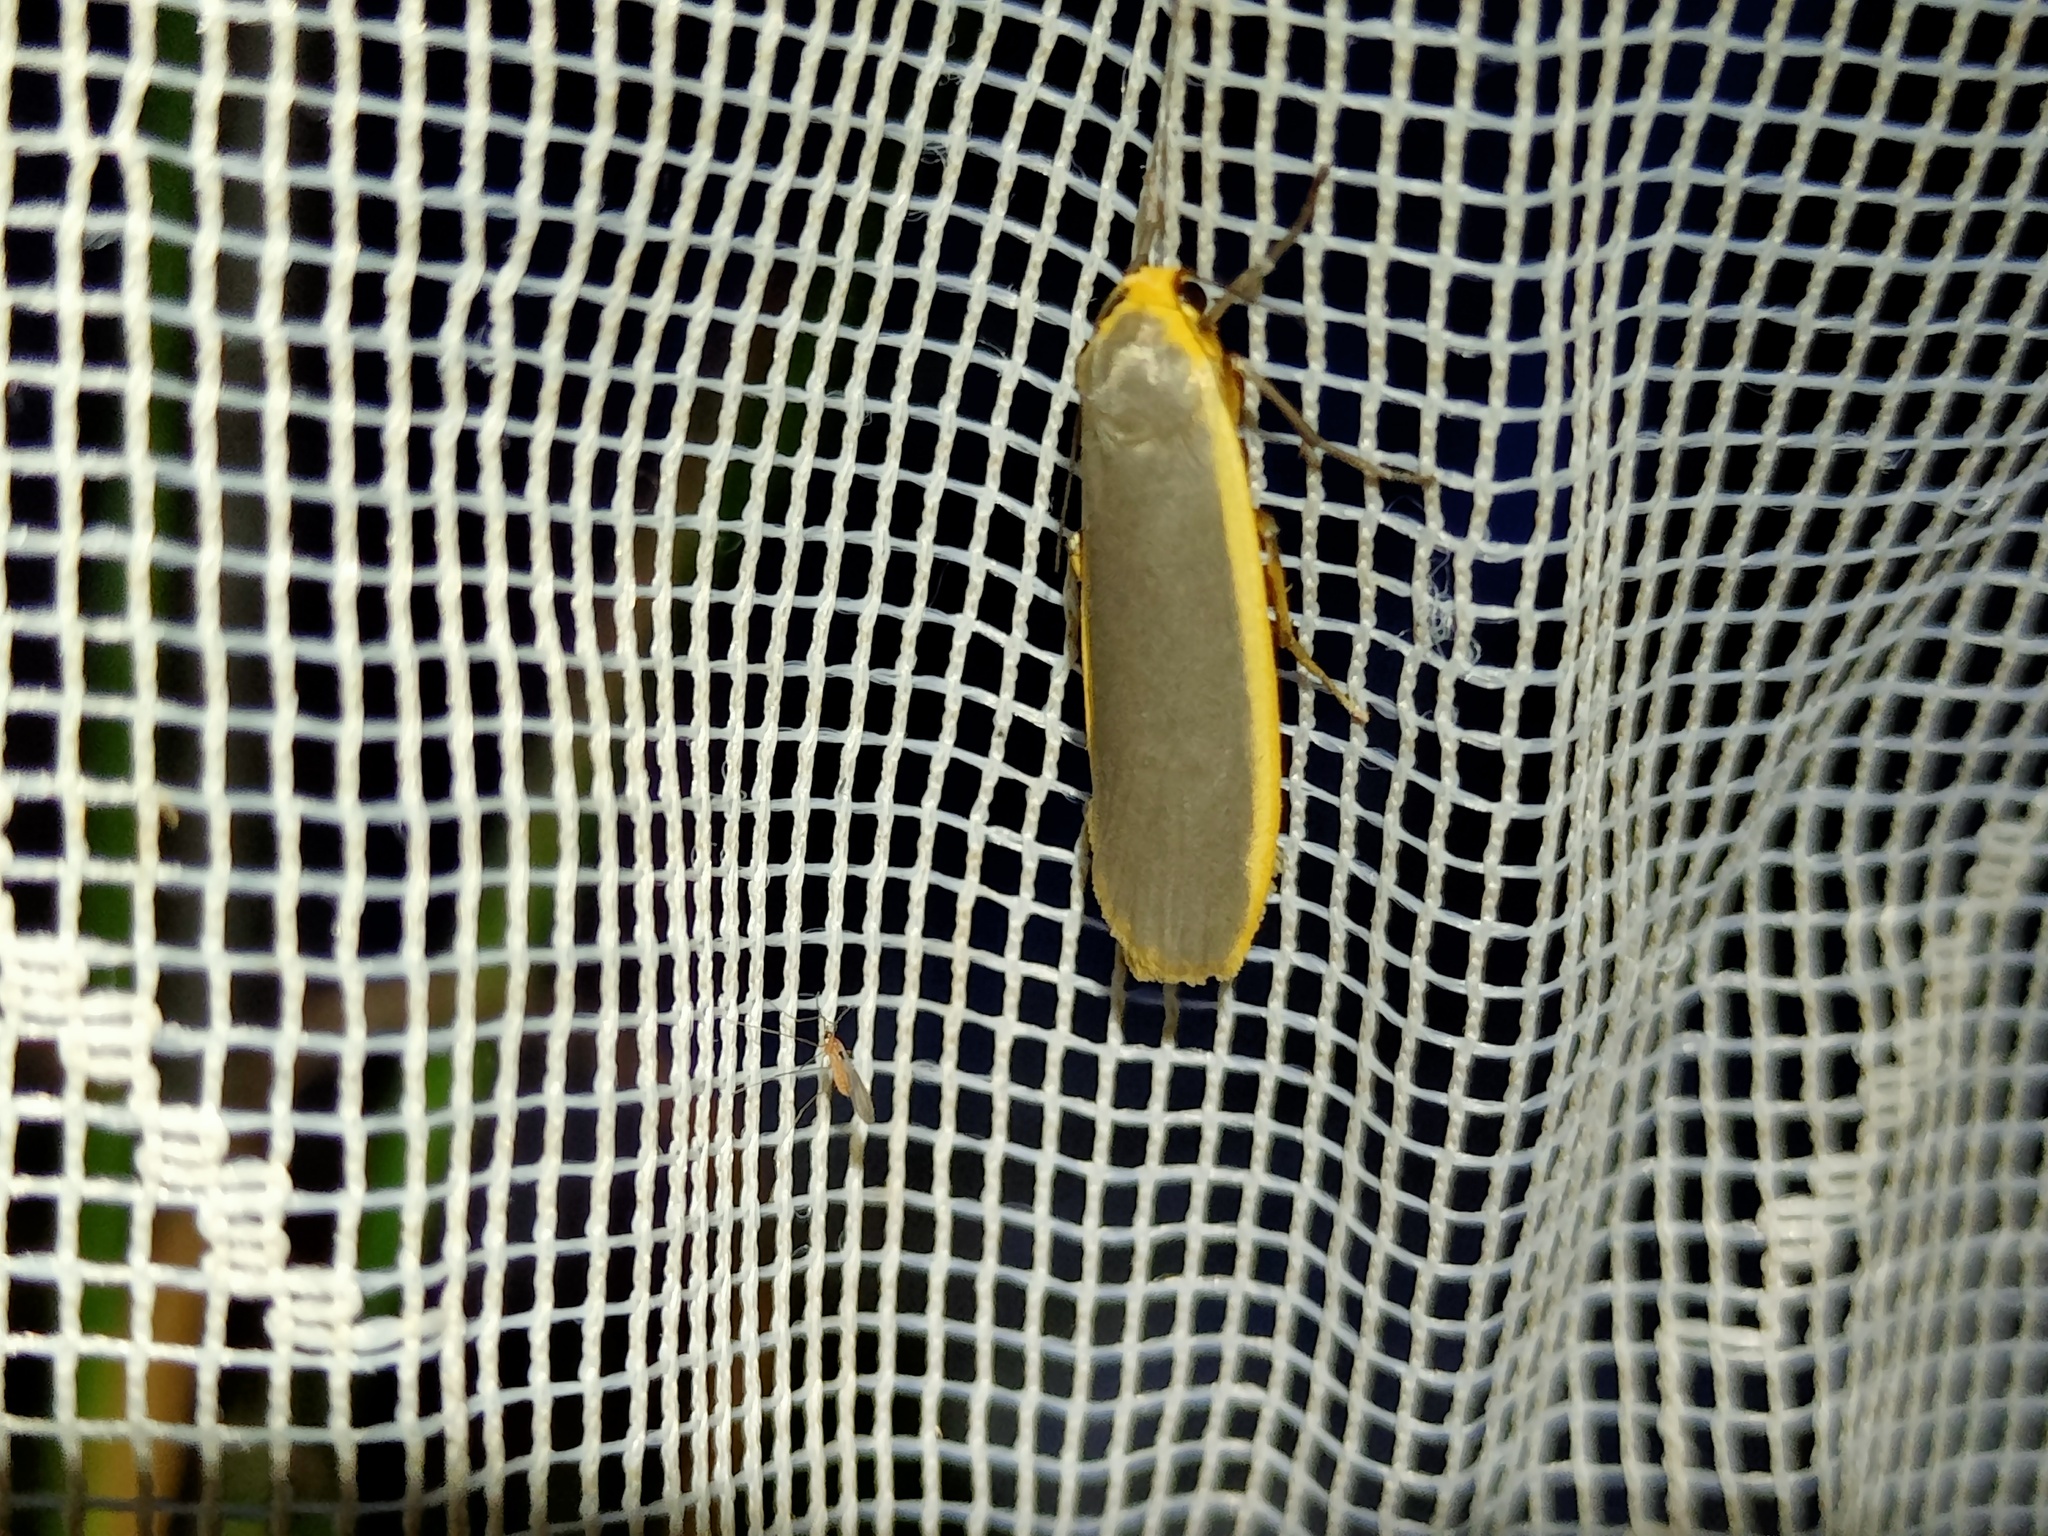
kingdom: Animalia
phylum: Arthropoda
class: Insecta
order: Lepidoptera
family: Erebidae
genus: Nyea
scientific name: Nyea lurideola
